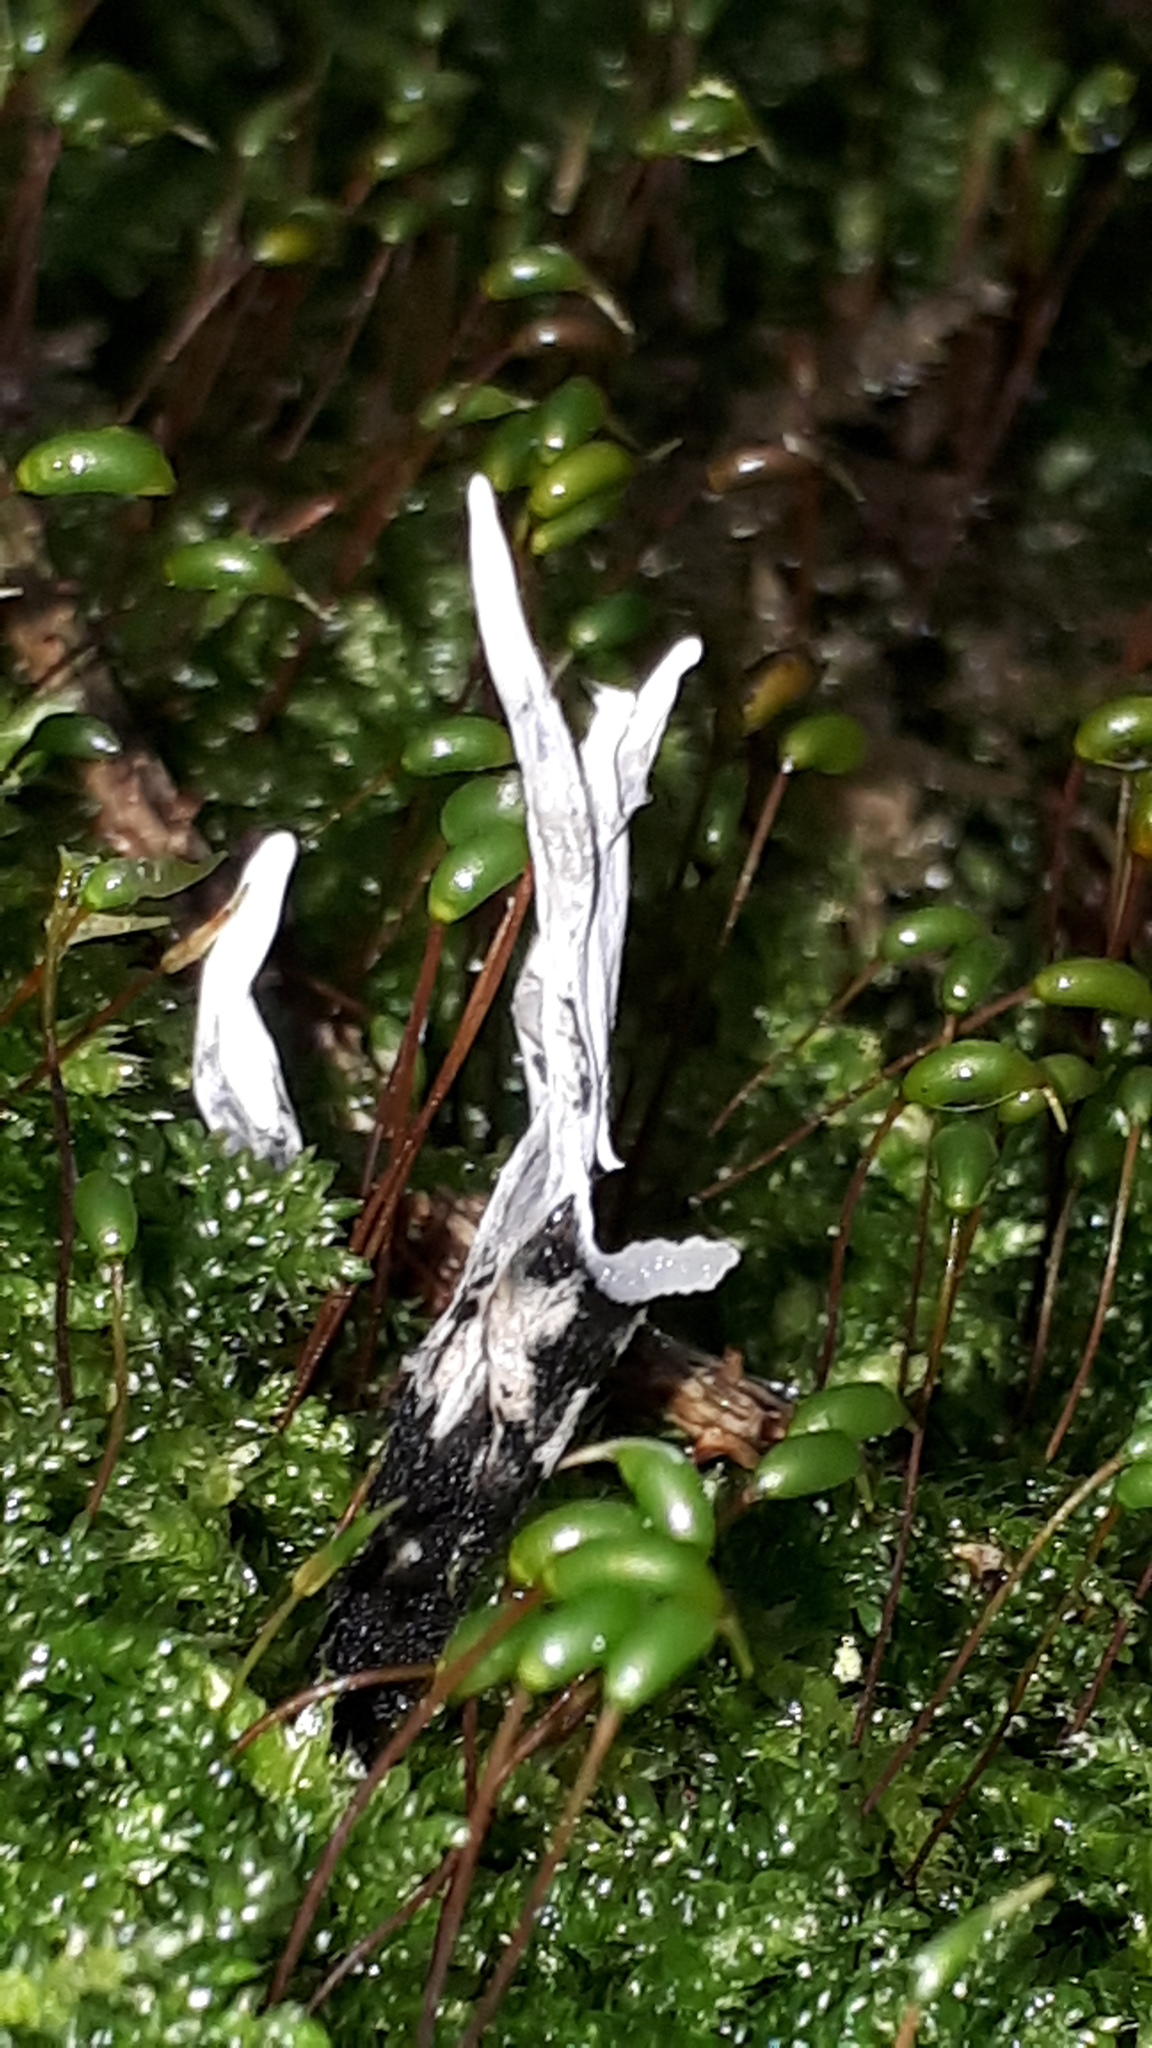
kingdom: Fungi
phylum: Ascomycota
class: Sordariomycetes
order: Xylariales
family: Xylariaceae
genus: Xylaria
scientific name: Xylaria hypoxylon
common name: Candle-snuff fungus
